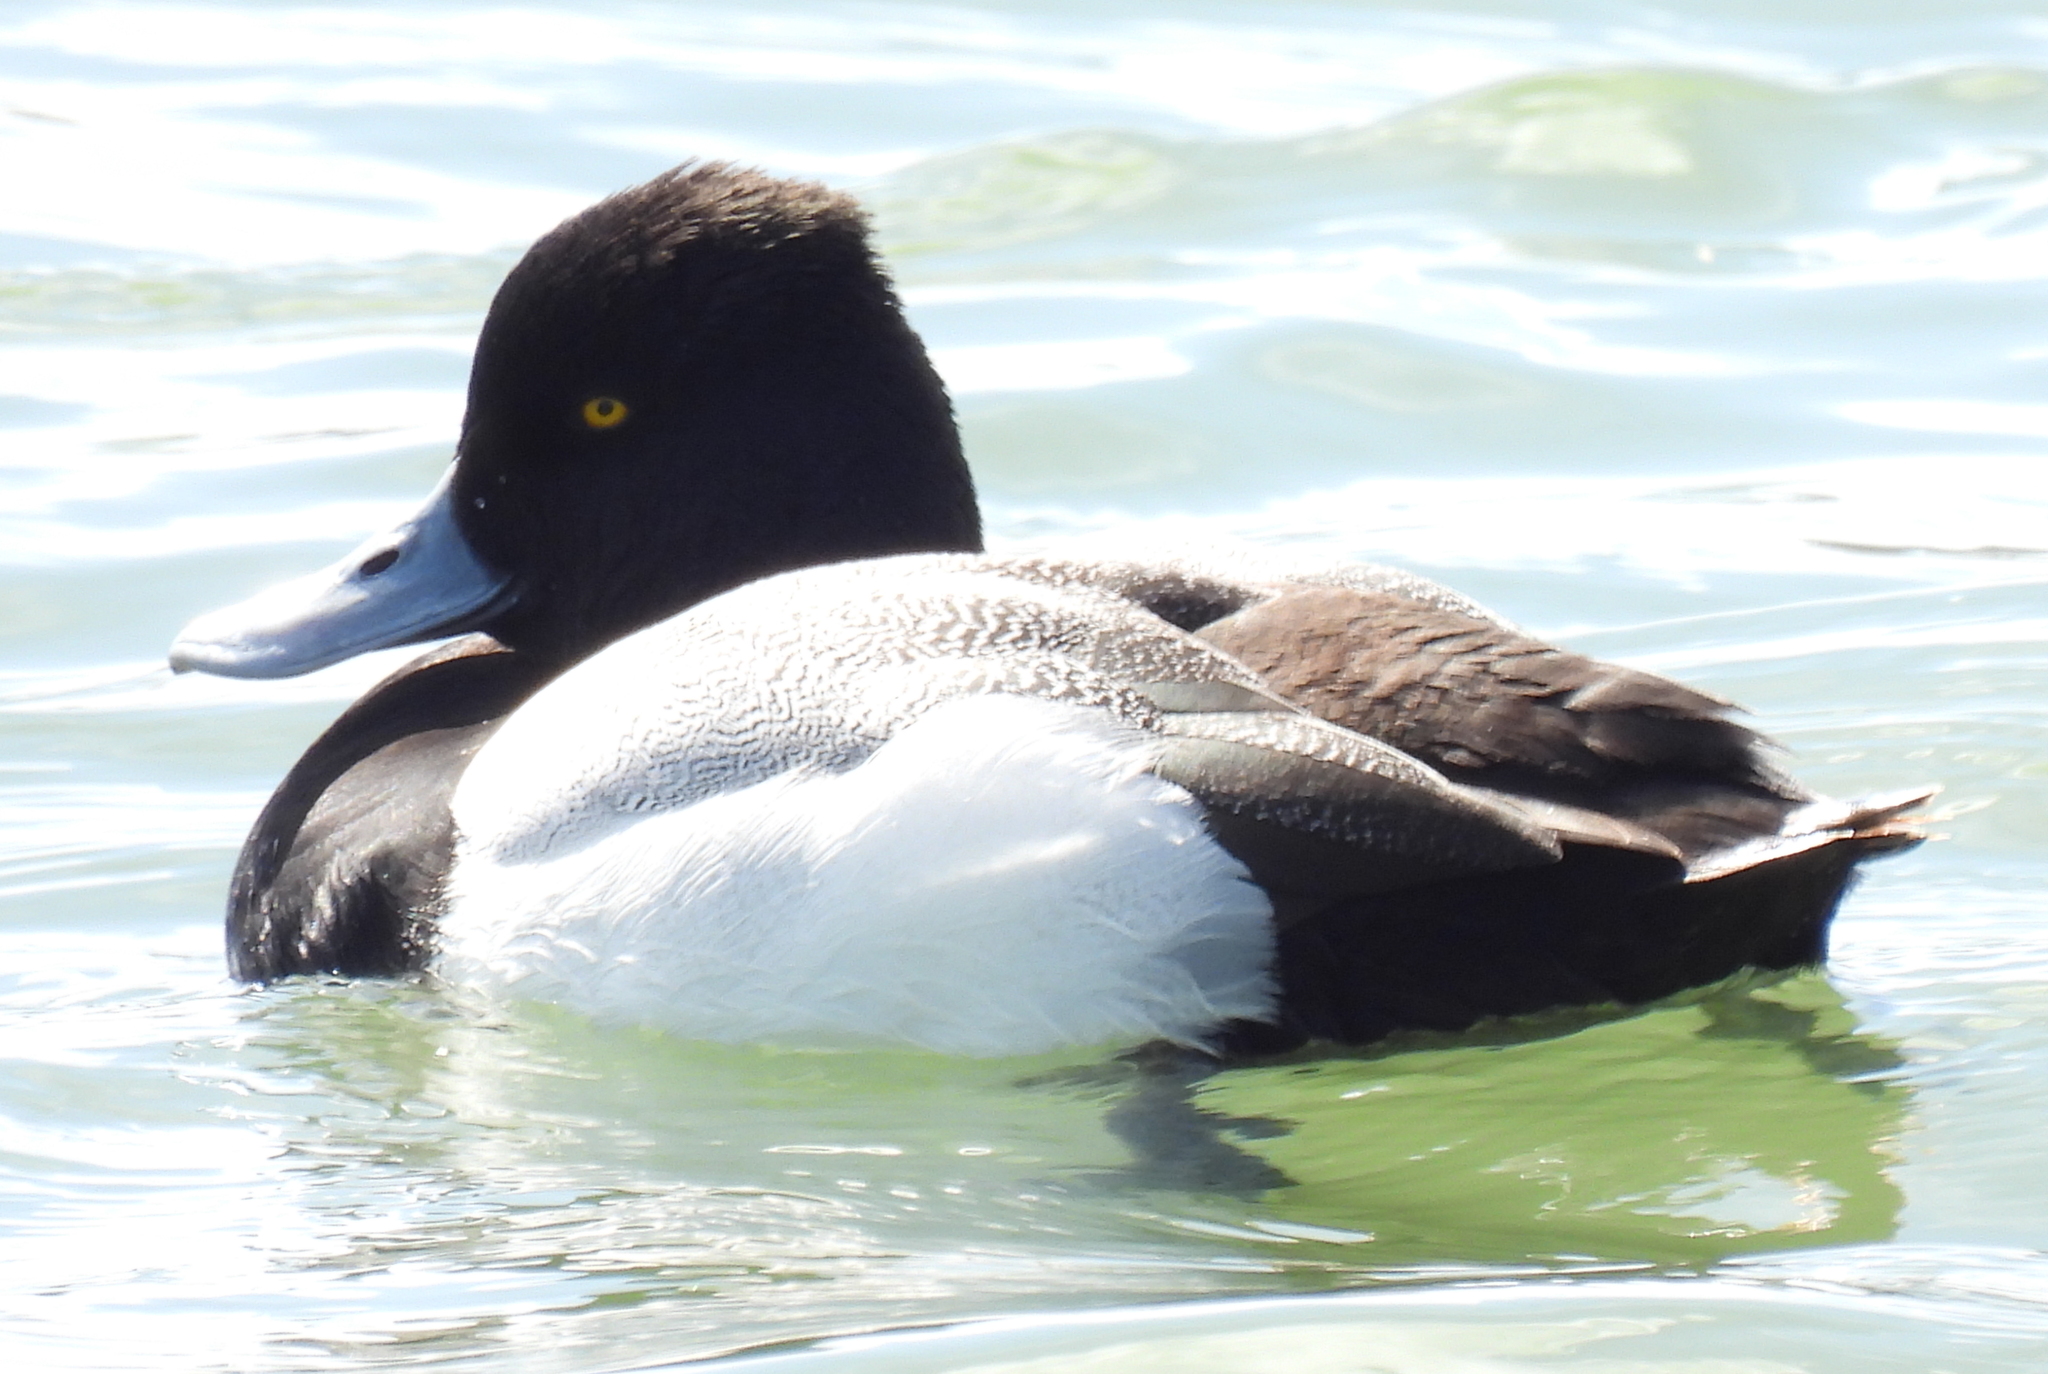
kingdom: Animalia
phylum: Chordata
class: Aves
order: Anseriformes
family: Anatidae
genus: Aythya
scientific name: Aythya affinis
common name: Lesser scaup
